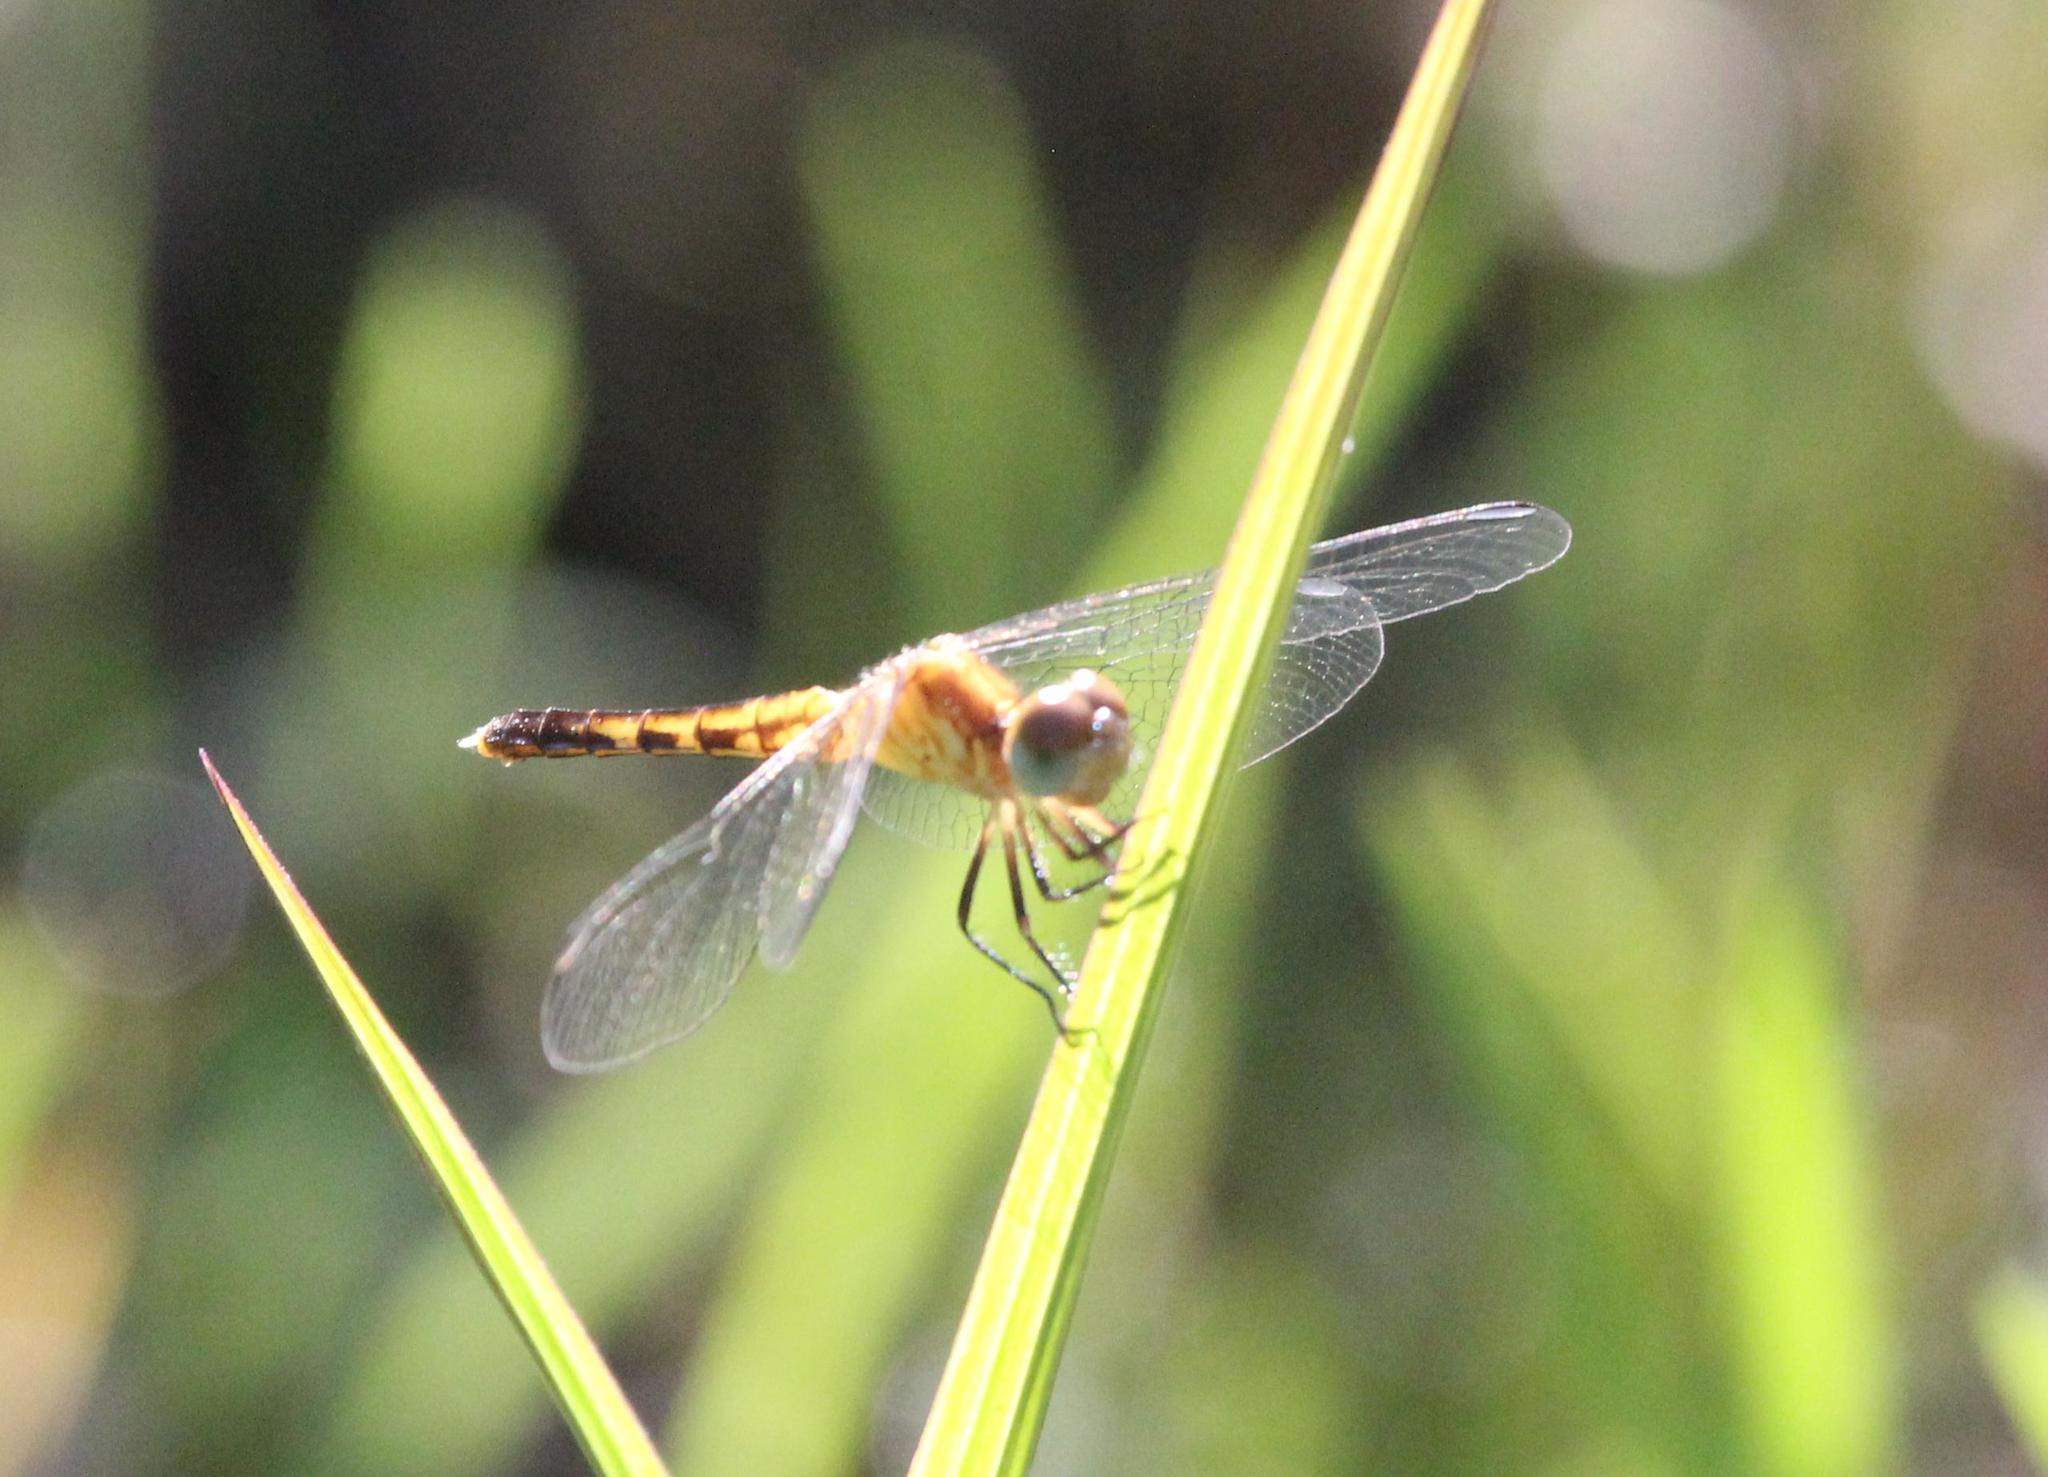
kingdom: Animalia
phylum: Arthropoda
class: Insecta
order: Odonata
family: Libellulidae
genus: Erythrodiplax
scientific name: Erythrodiplax minuscula
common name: Little blue dragonlet
